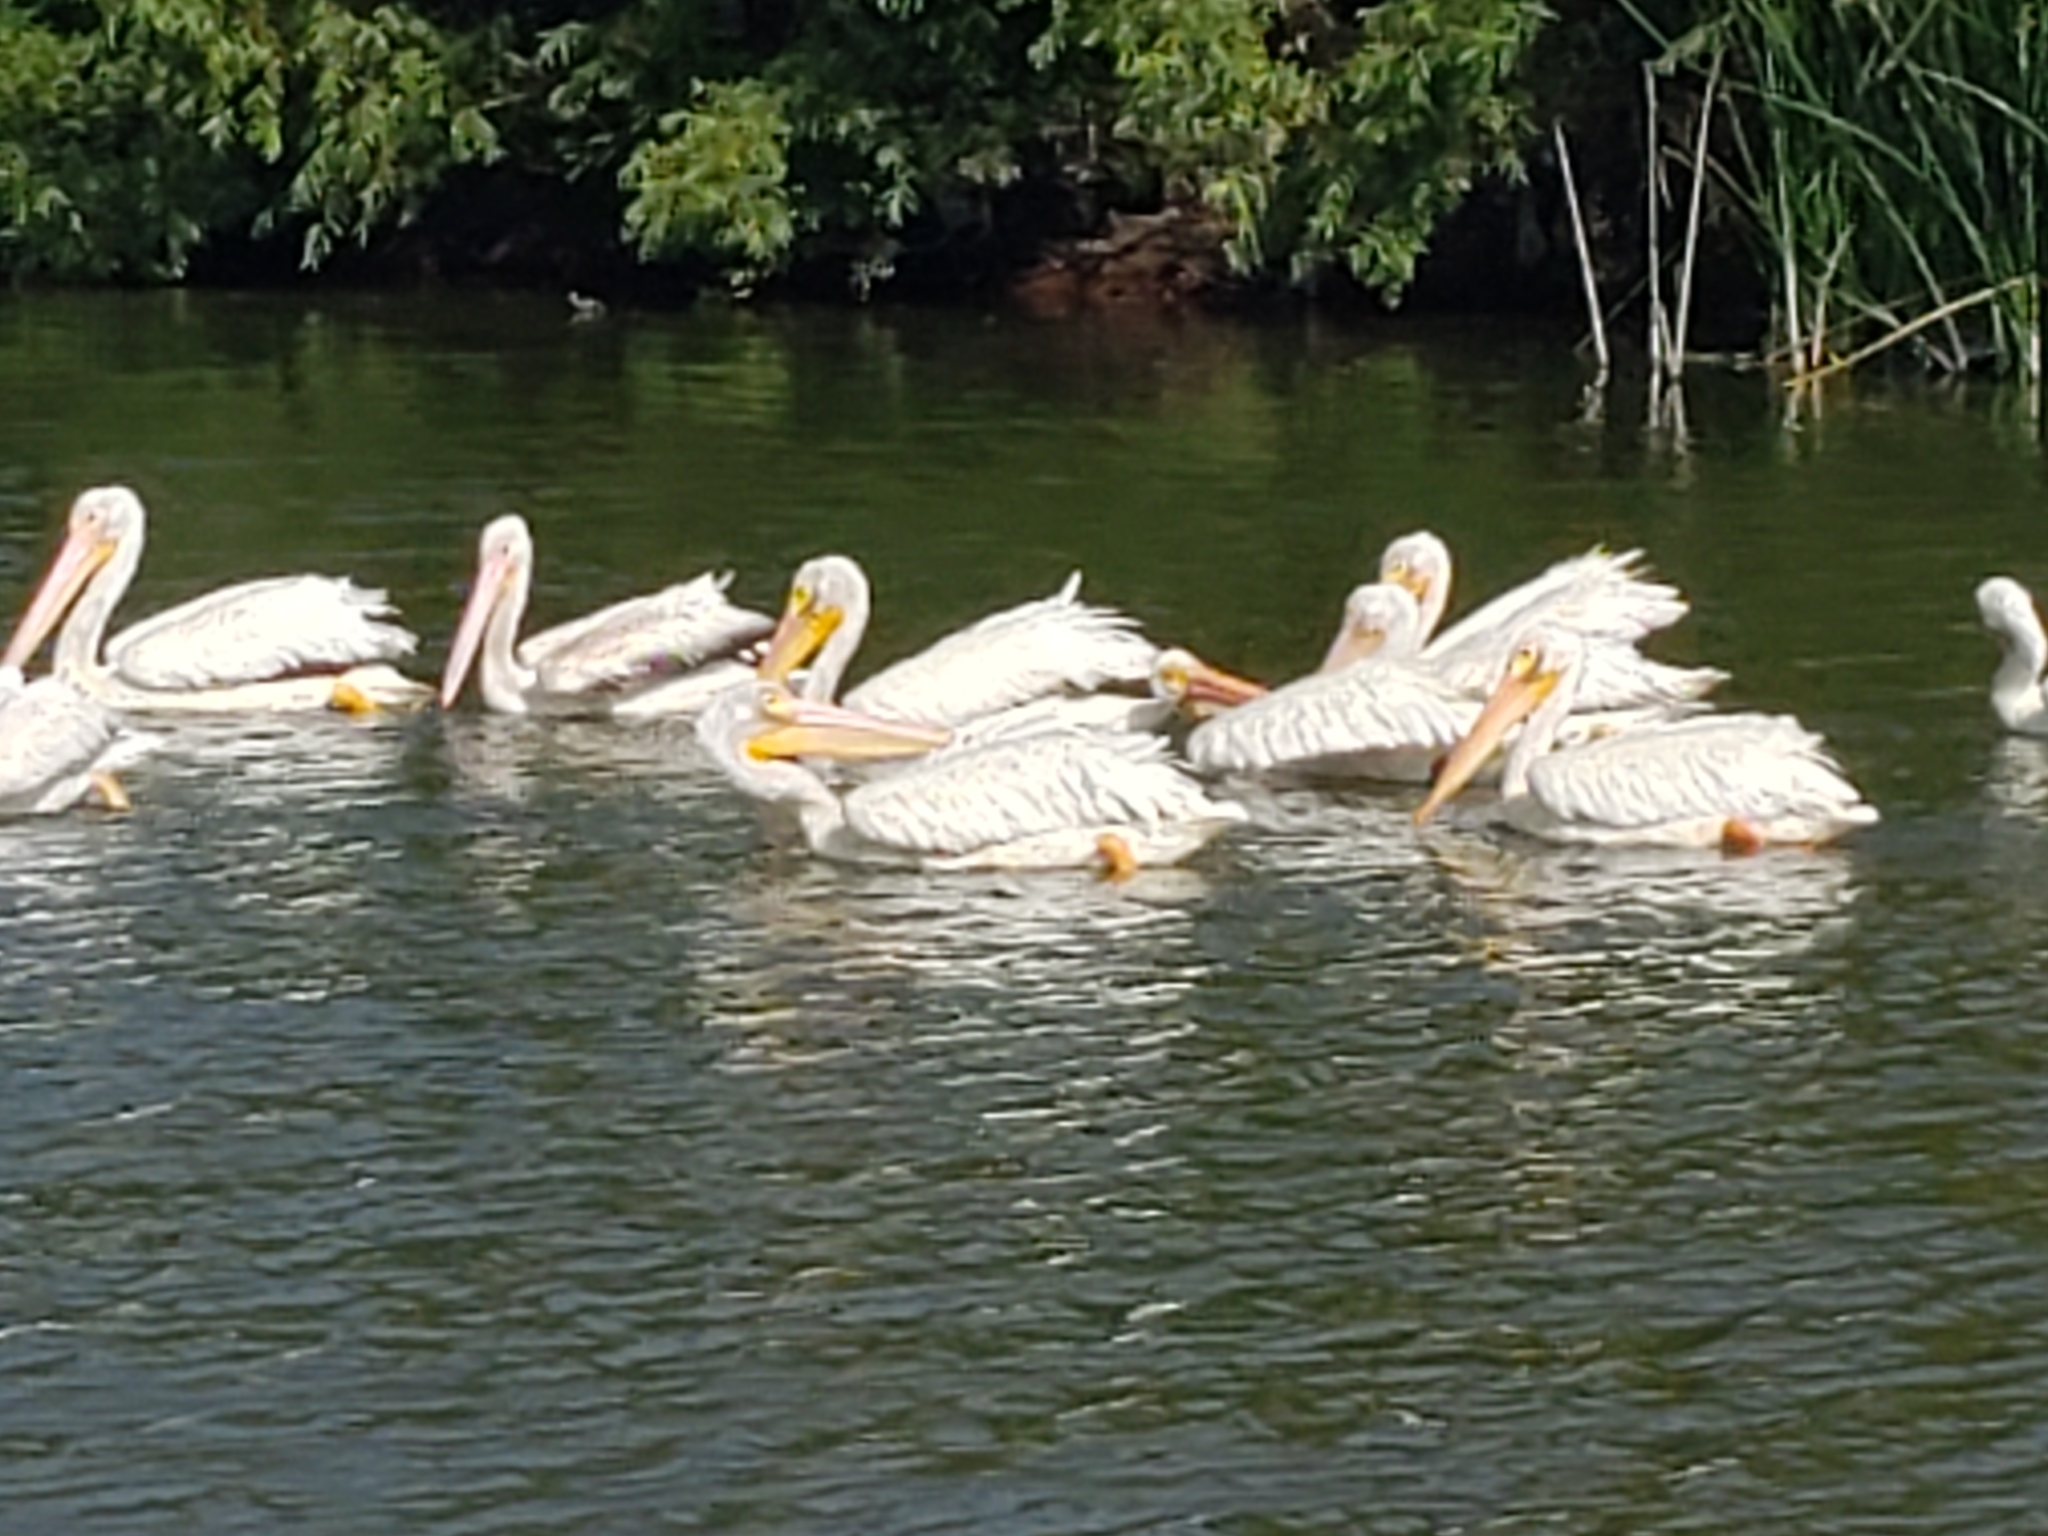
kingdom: Animalia
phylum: Chordata
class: Aves
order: Pelecaniformes
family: Pelecanidae
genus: Pelecanus
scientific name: Pelecanus erythrorhynchos
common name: American white pelican
